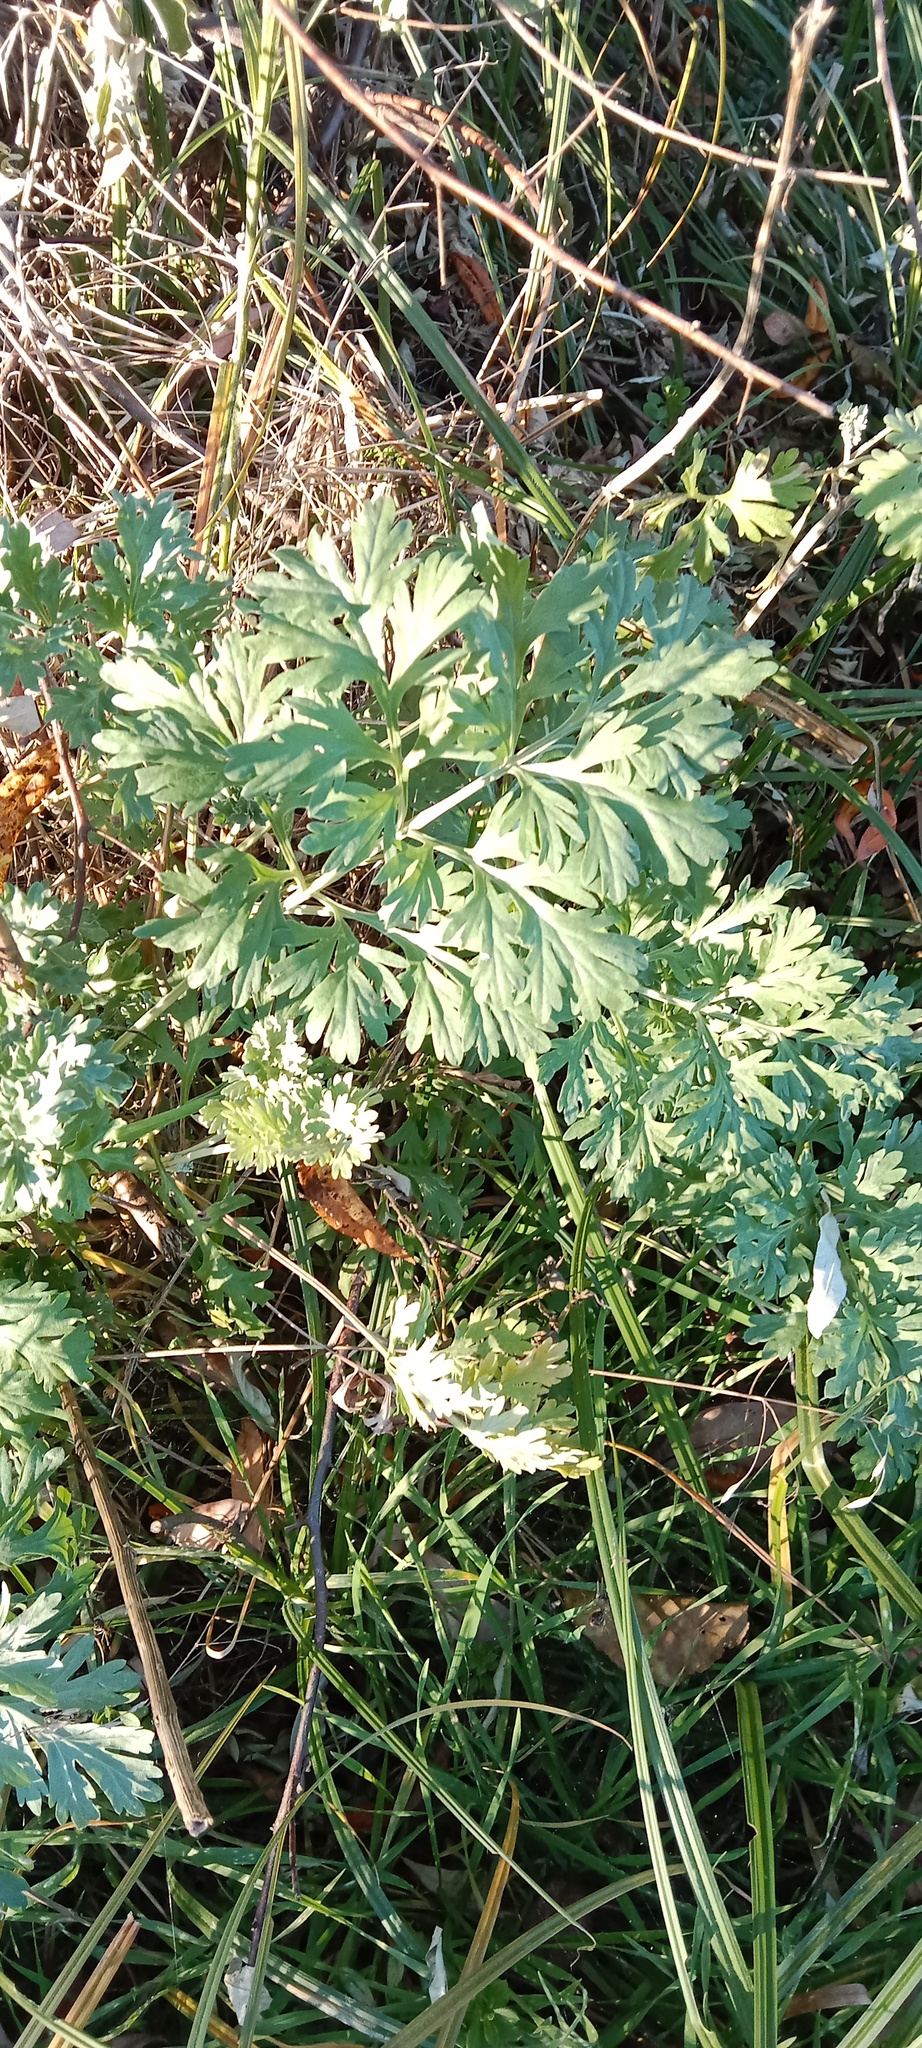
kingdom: Plantae
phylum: Tracheophyta
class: Magnoliopsida
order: Asterales
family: Asteraceae
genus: Artemisia
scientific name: Artemisia absinthium
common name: Wormwood
